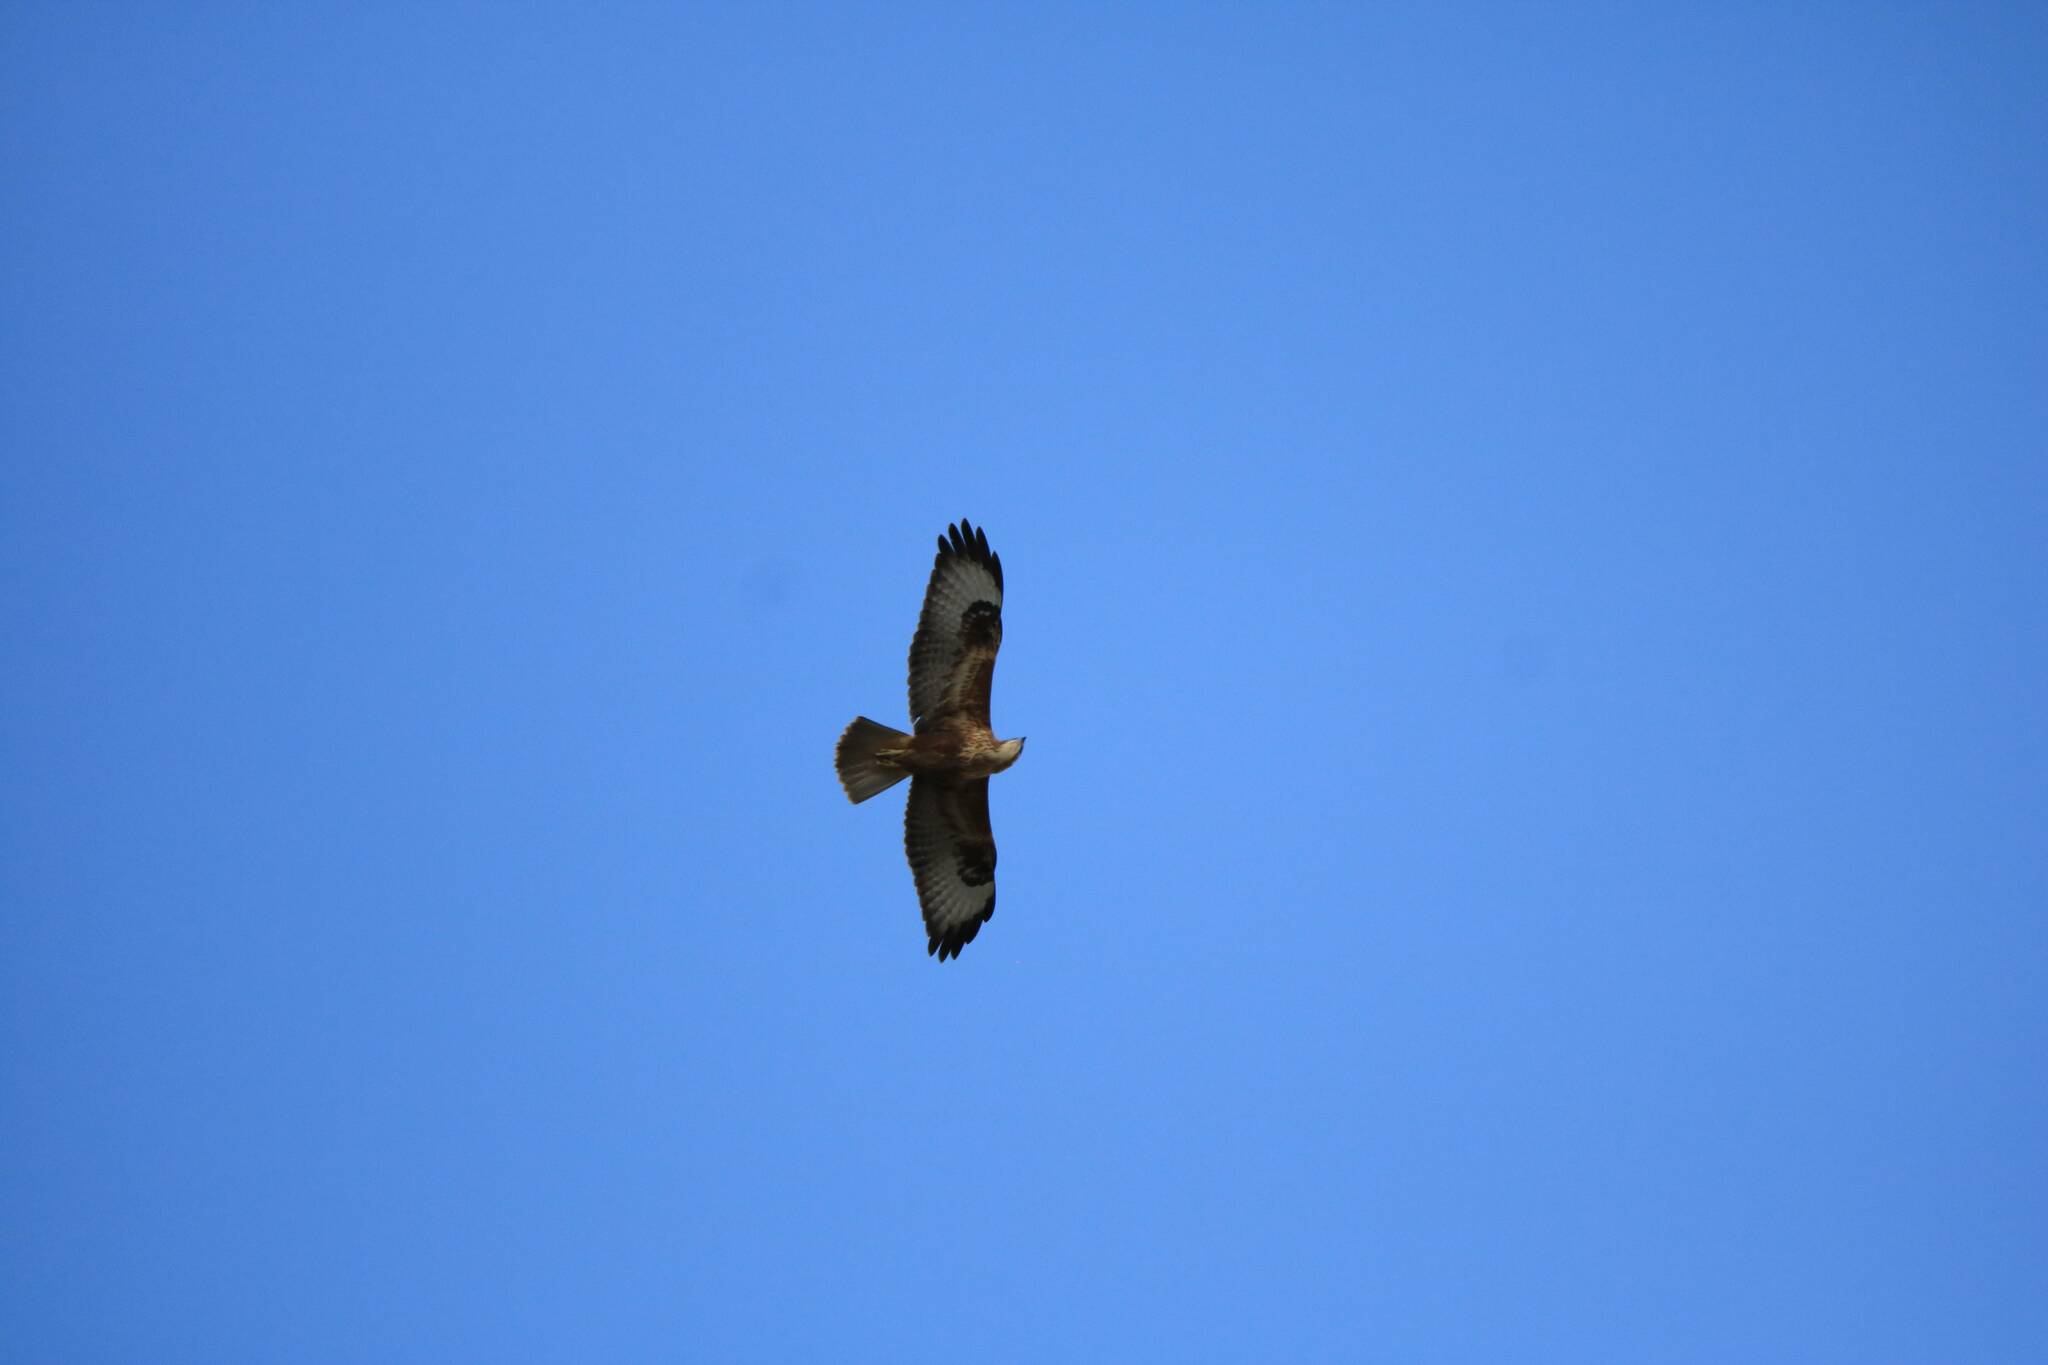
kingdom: Animalia
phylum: Chordata
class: Aves
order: Accipitriformes
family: Accipitridae
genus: Buteo
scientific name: Buteo rufinus
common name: Long-legged buzzard
